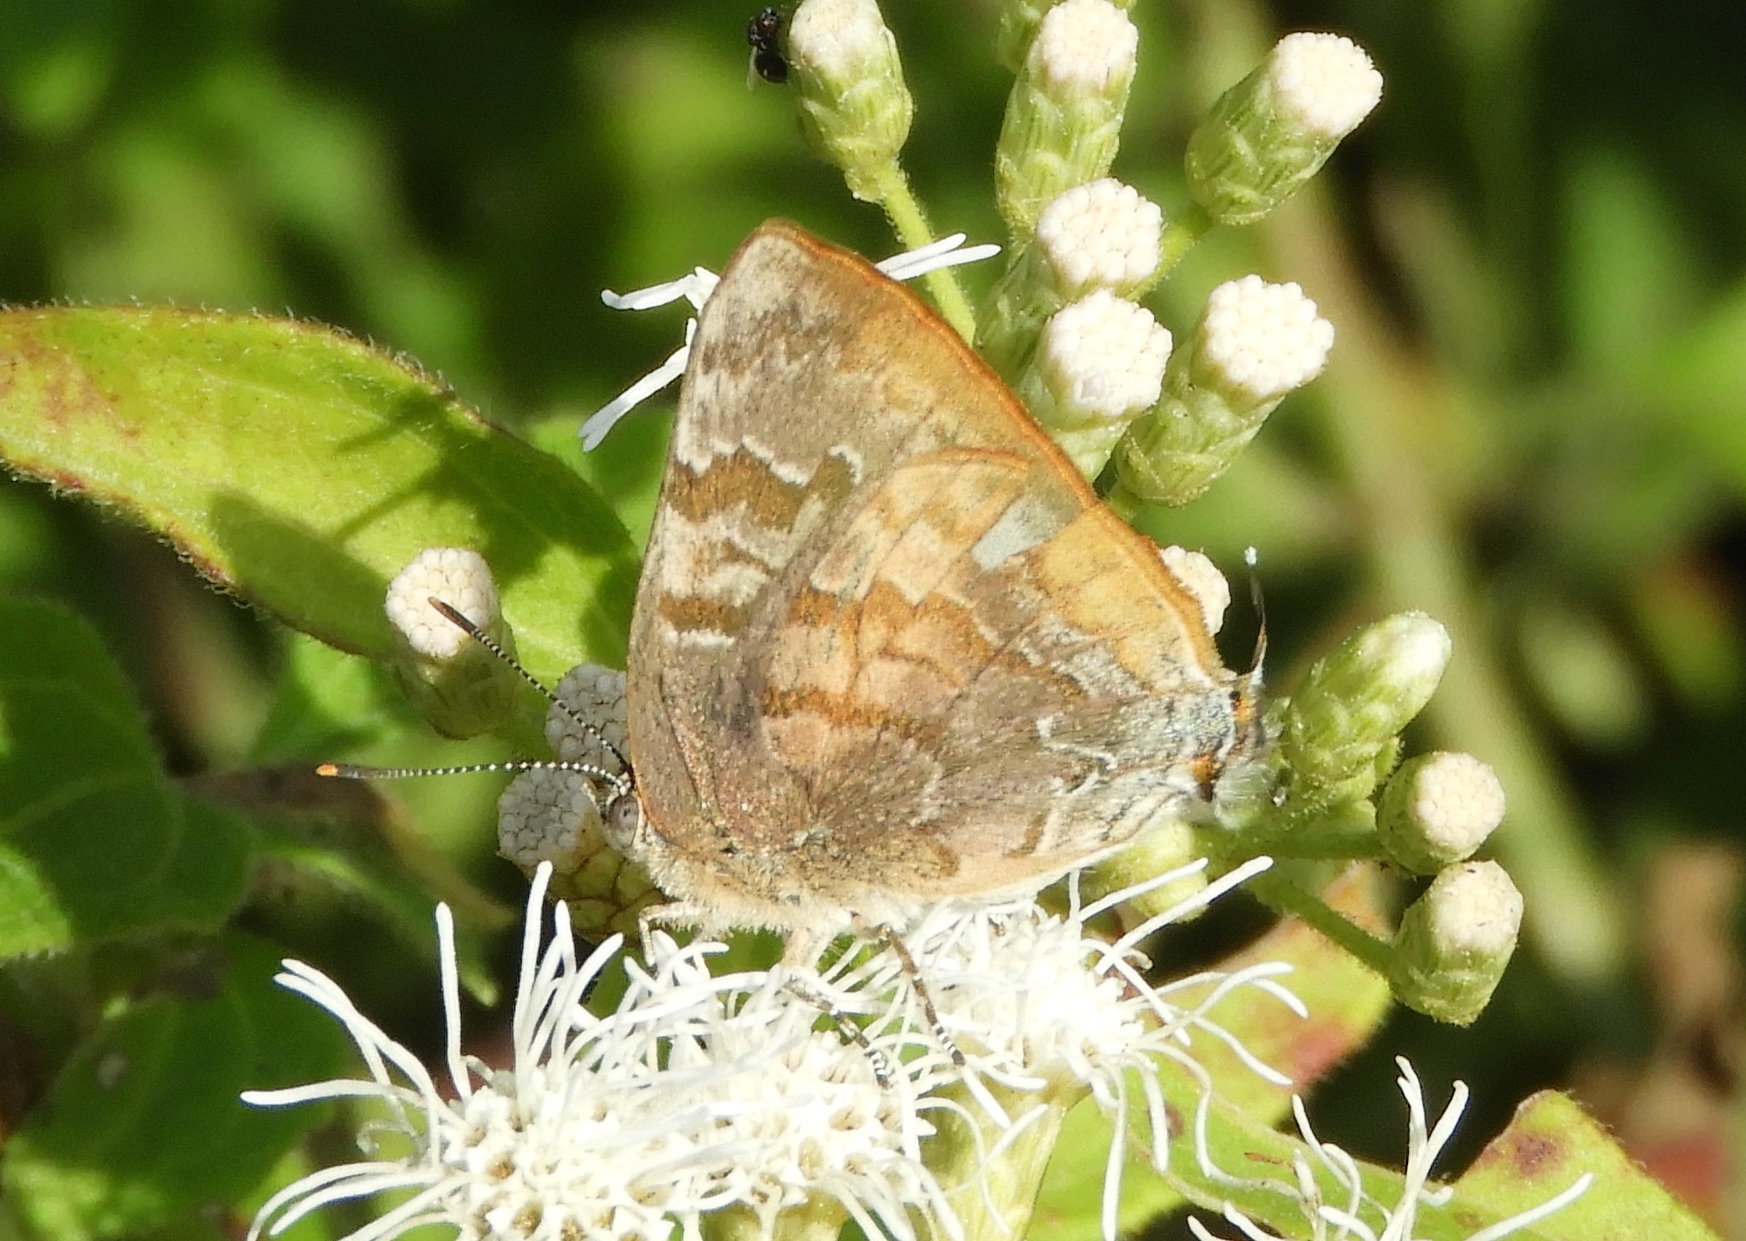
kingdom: Animalia
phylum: Arthropoda
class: Insecta
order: Lepidoptera
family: Lycaenidae
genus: Rekoa
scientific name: Rekoa palegon
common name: Gold-bordered hairstreak
